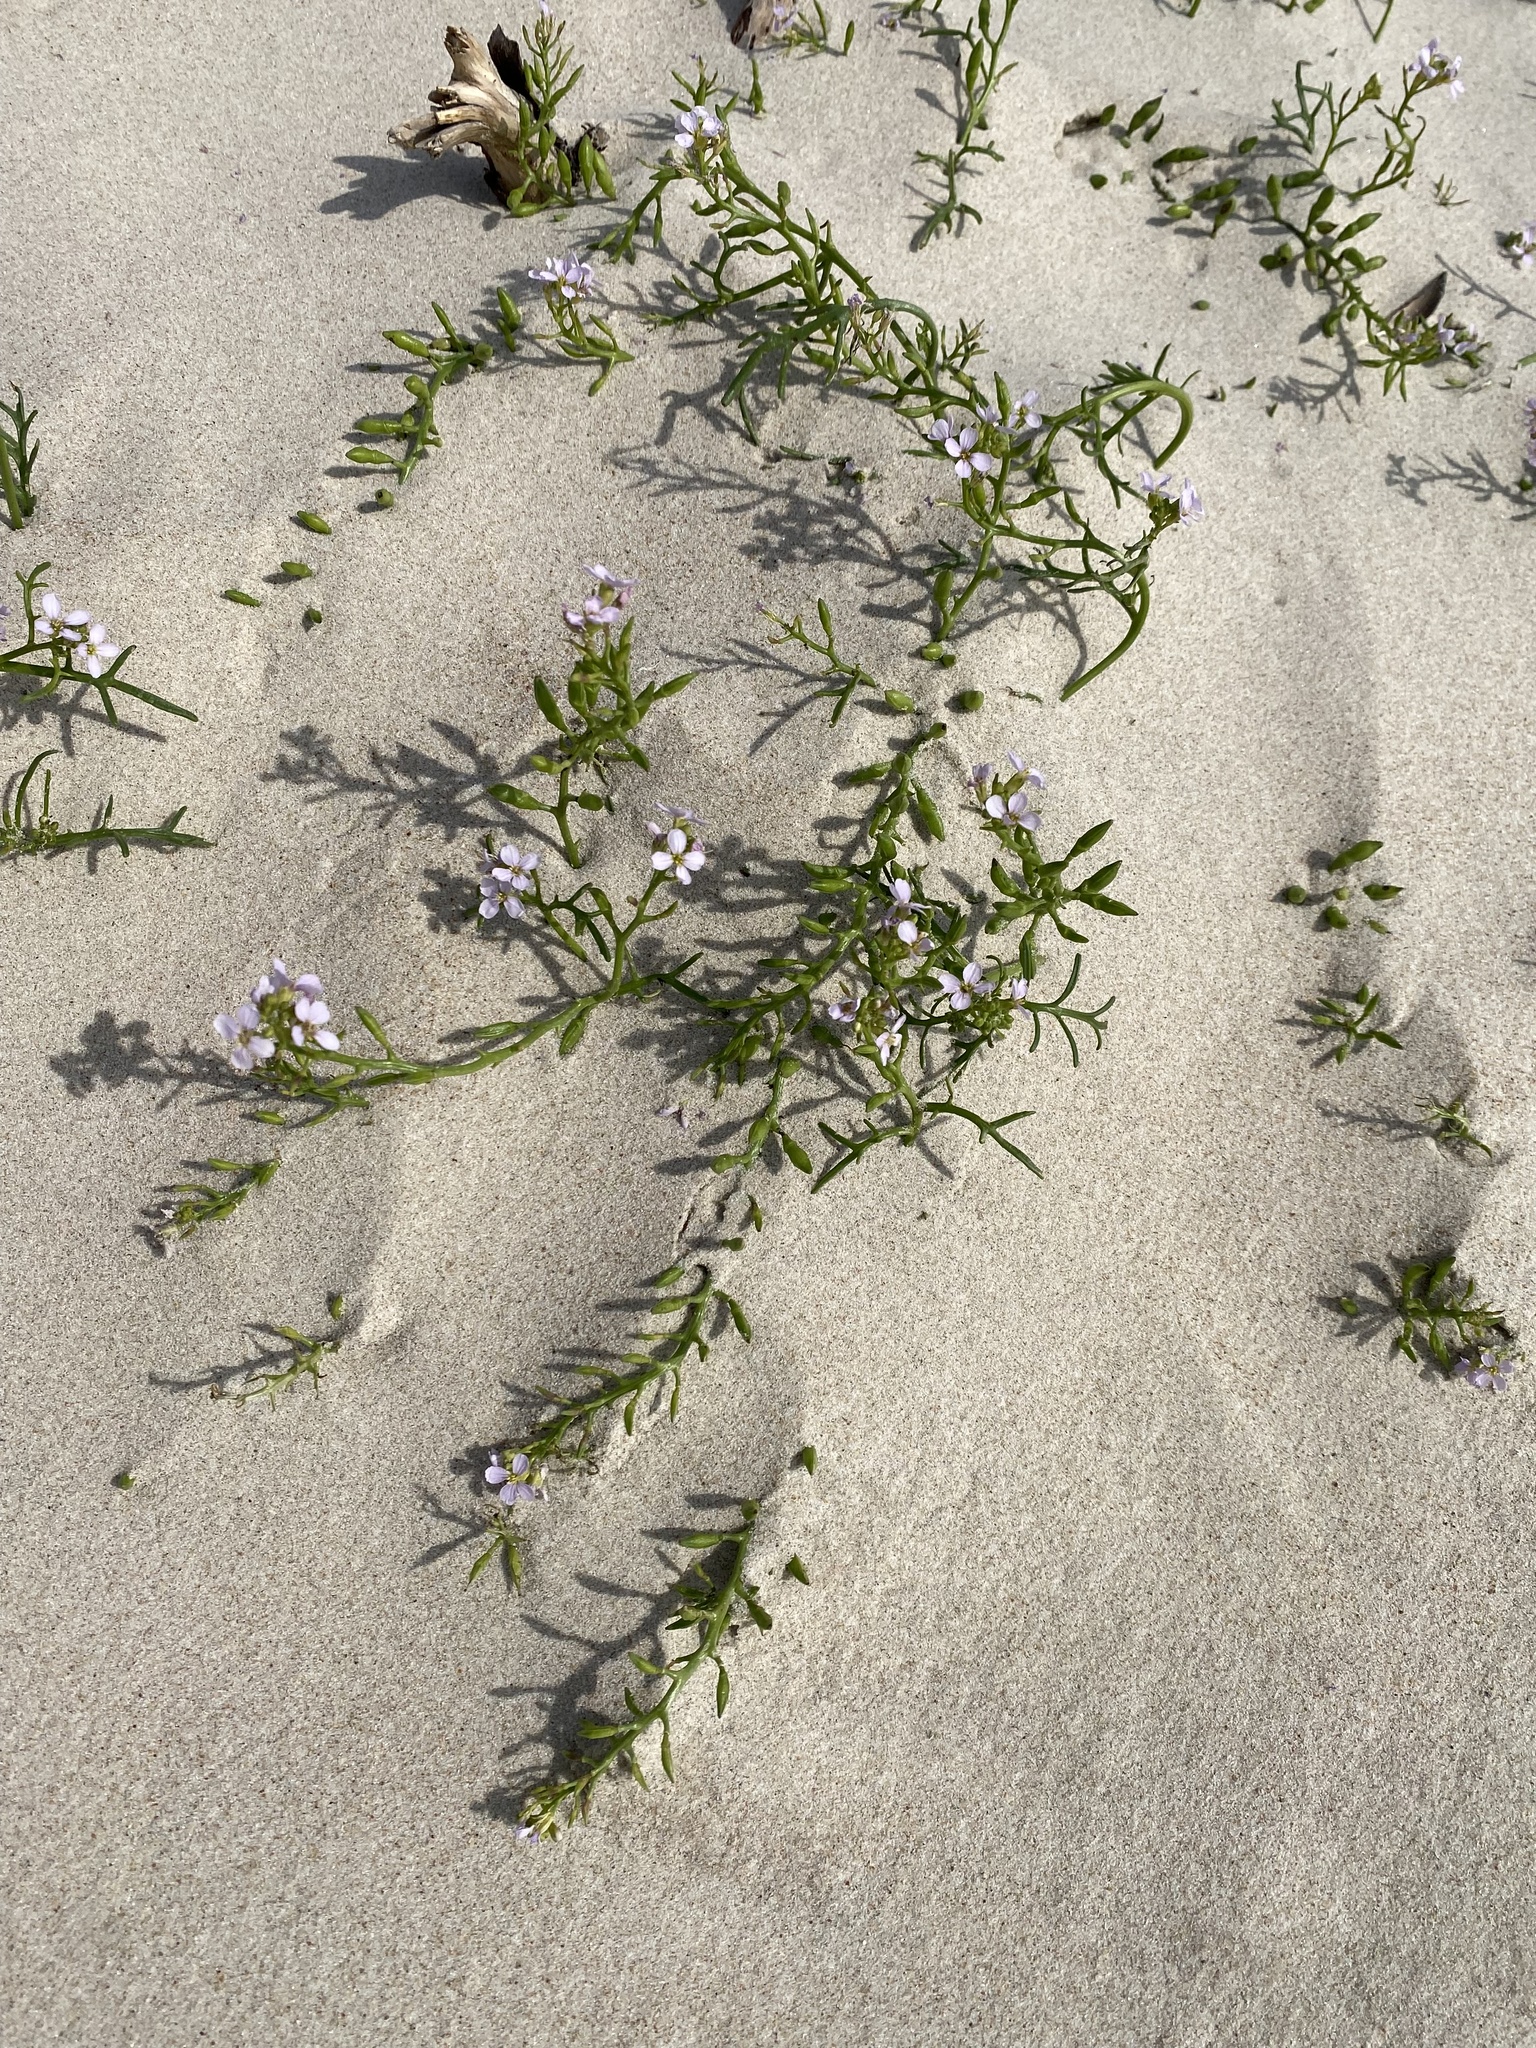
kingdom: Plantae
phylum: Tracheophyta
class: Magnoliopsida
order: Brassicales
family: Brassicaceae
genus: Cakile
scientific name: Cakile maritima
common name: Sea rocket
